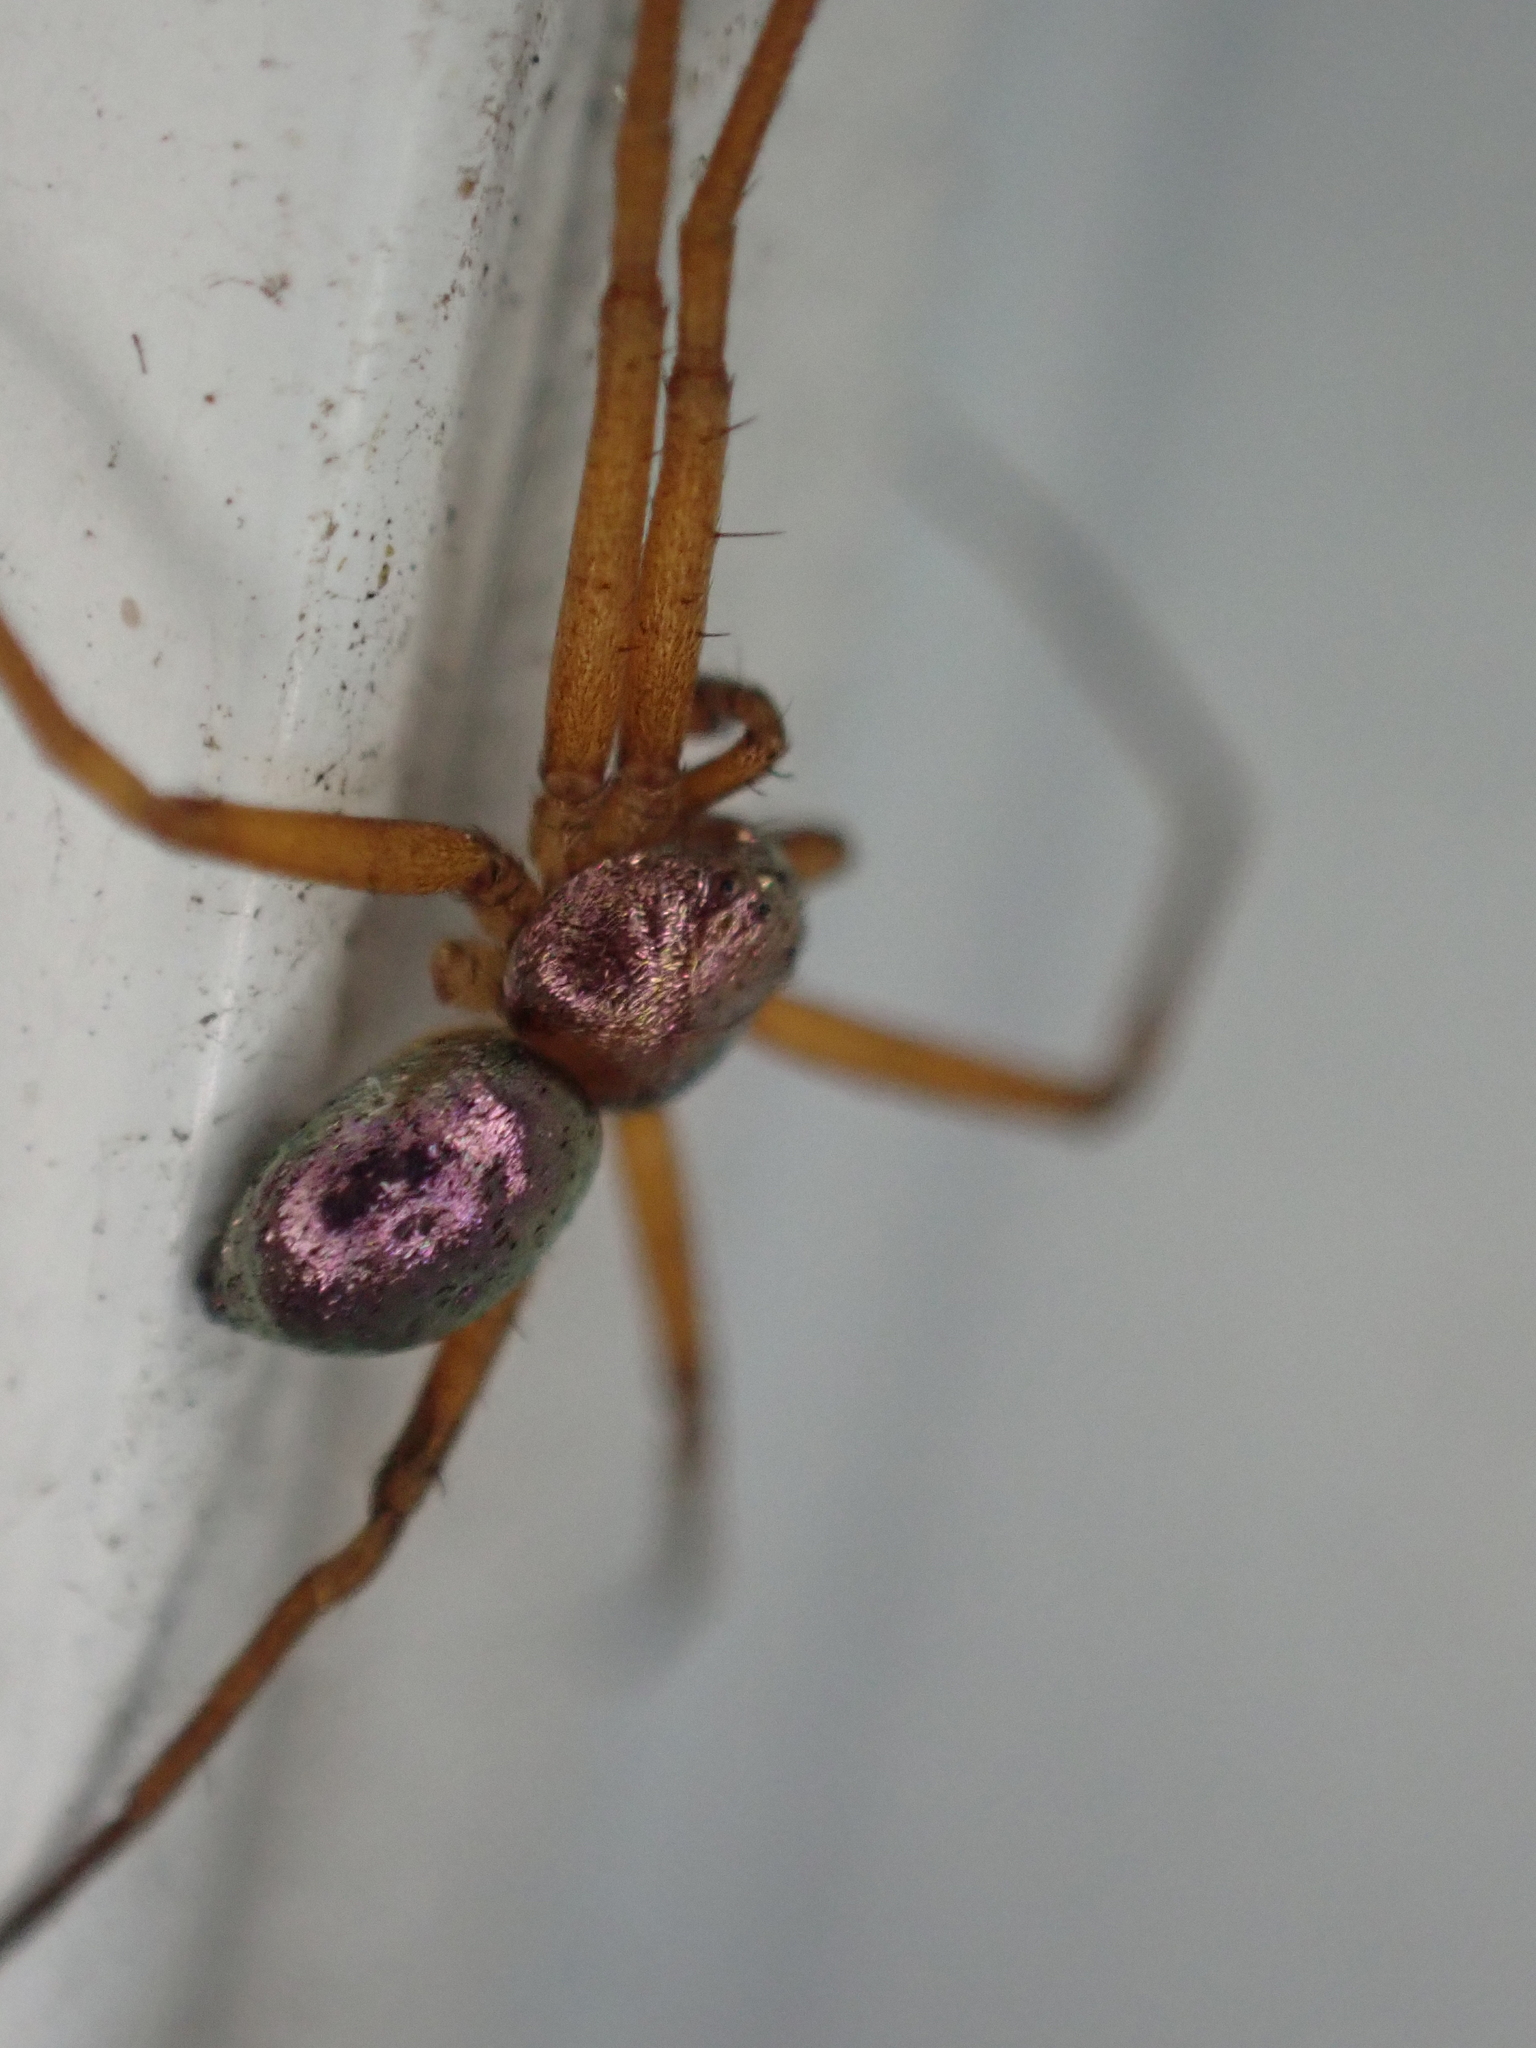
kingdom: Animalia
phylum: Arthropoda
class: Arachnida
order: Araneae
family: Philodromidae
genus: Philodromus
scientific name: Philodromus marxi
